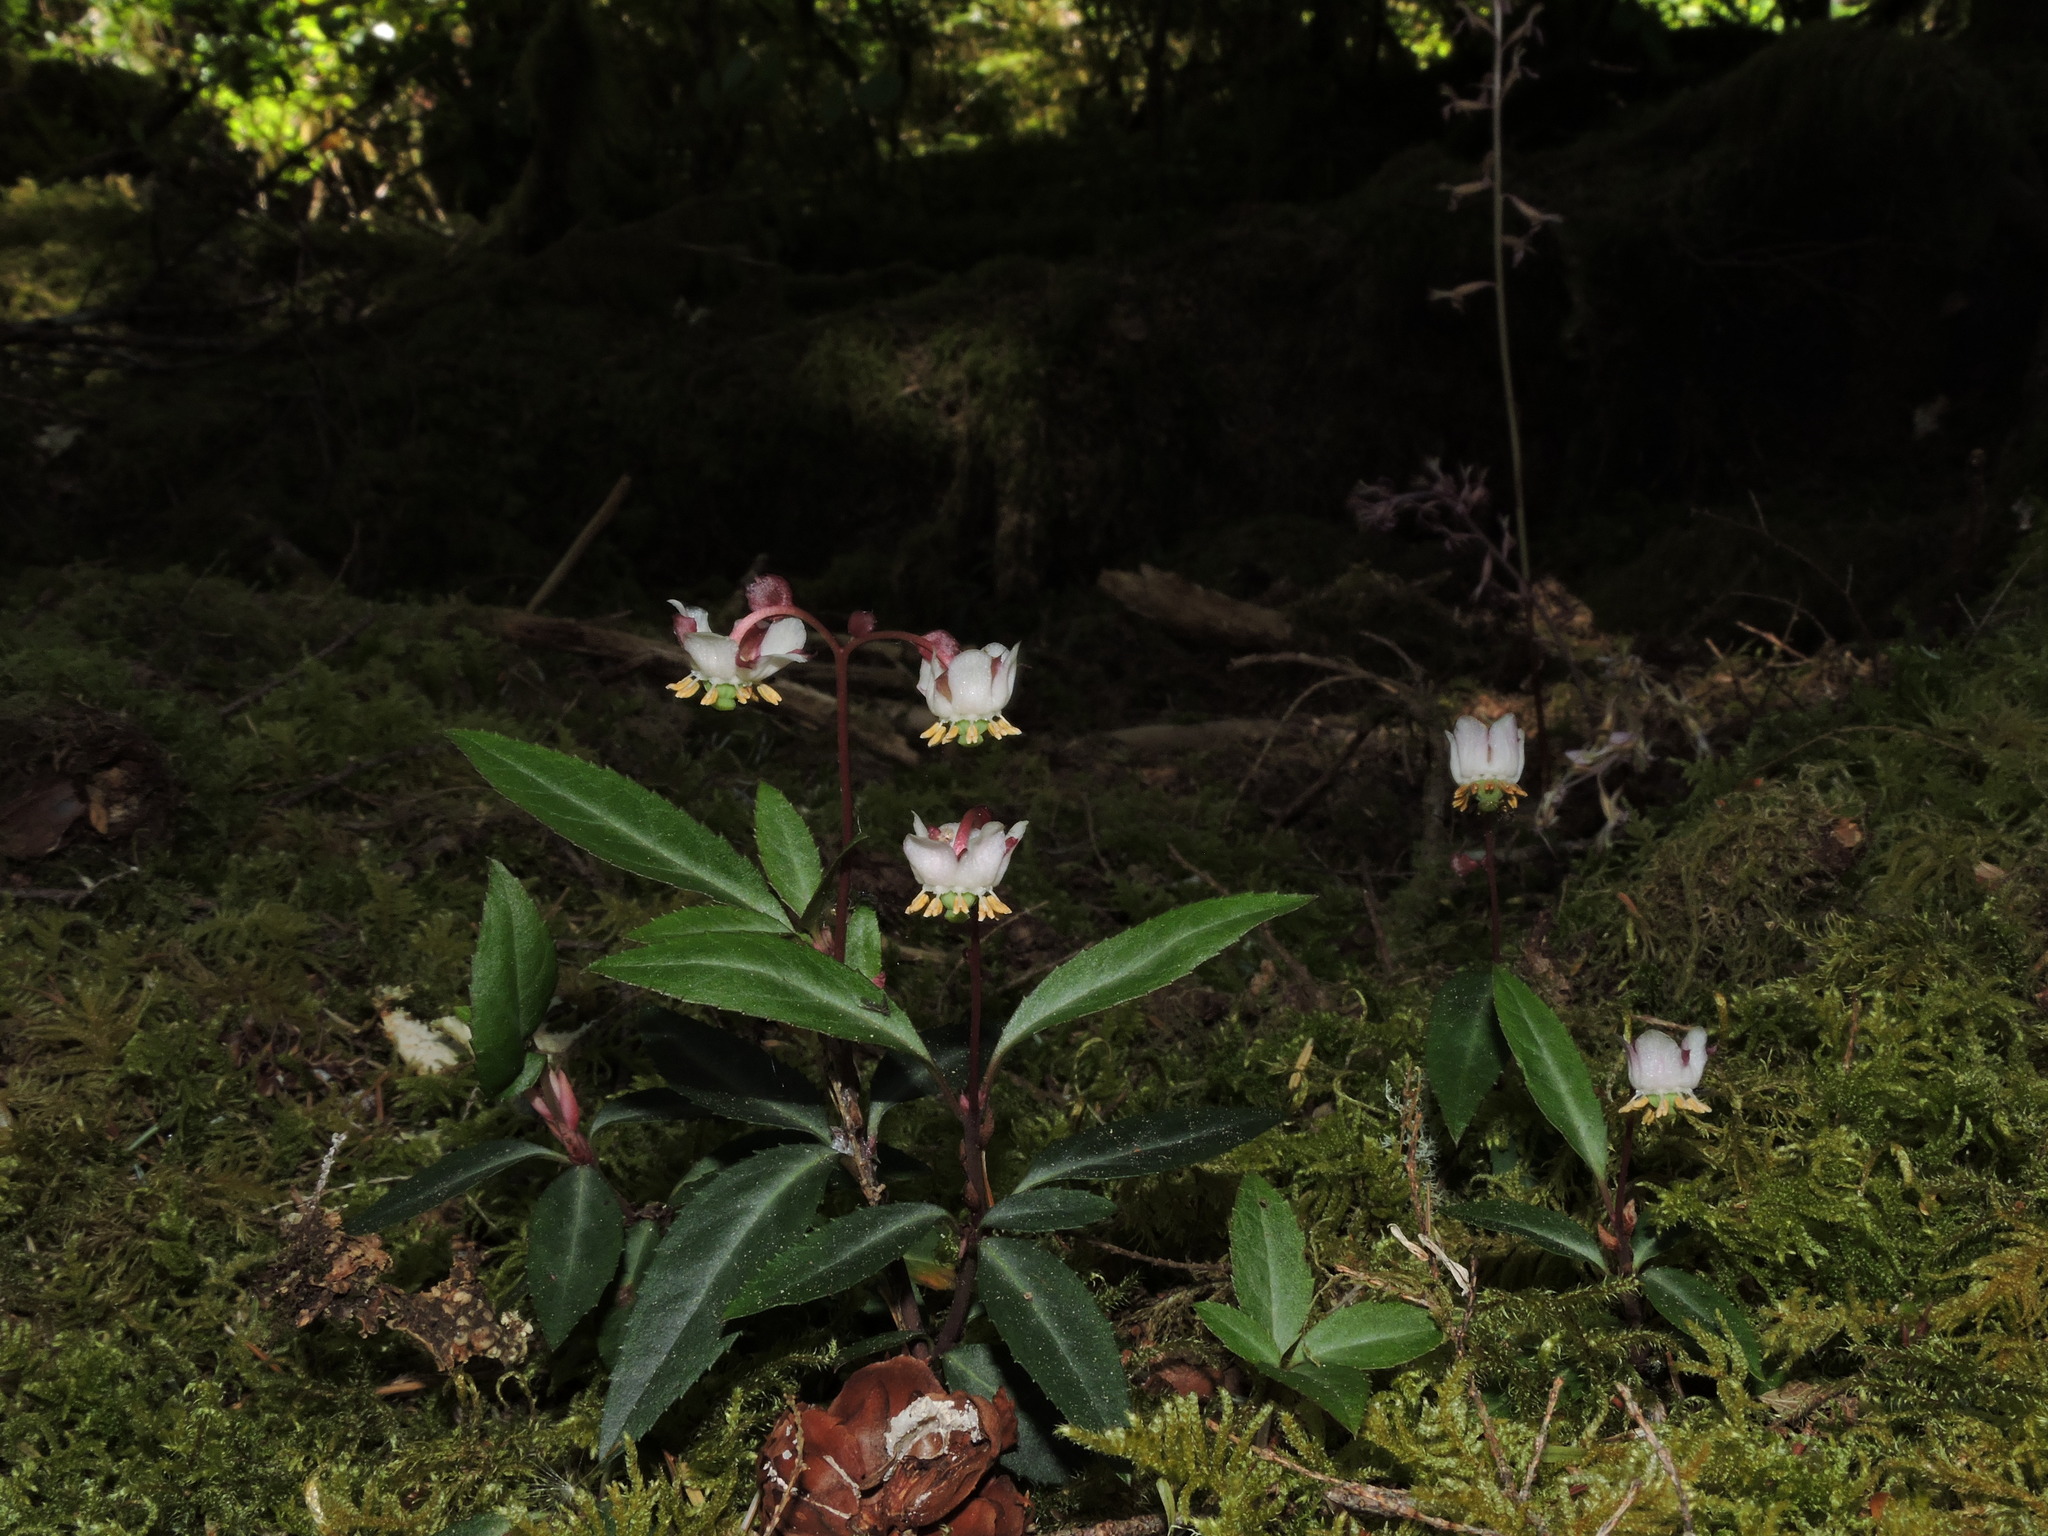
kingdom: Plantae
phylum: Tracheophyta
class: Magnoliopsida
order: Ericales
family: Ericaceae
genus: Chimaphila
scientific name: Chimaphila menziesii
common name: Menzies' pipsissewa
